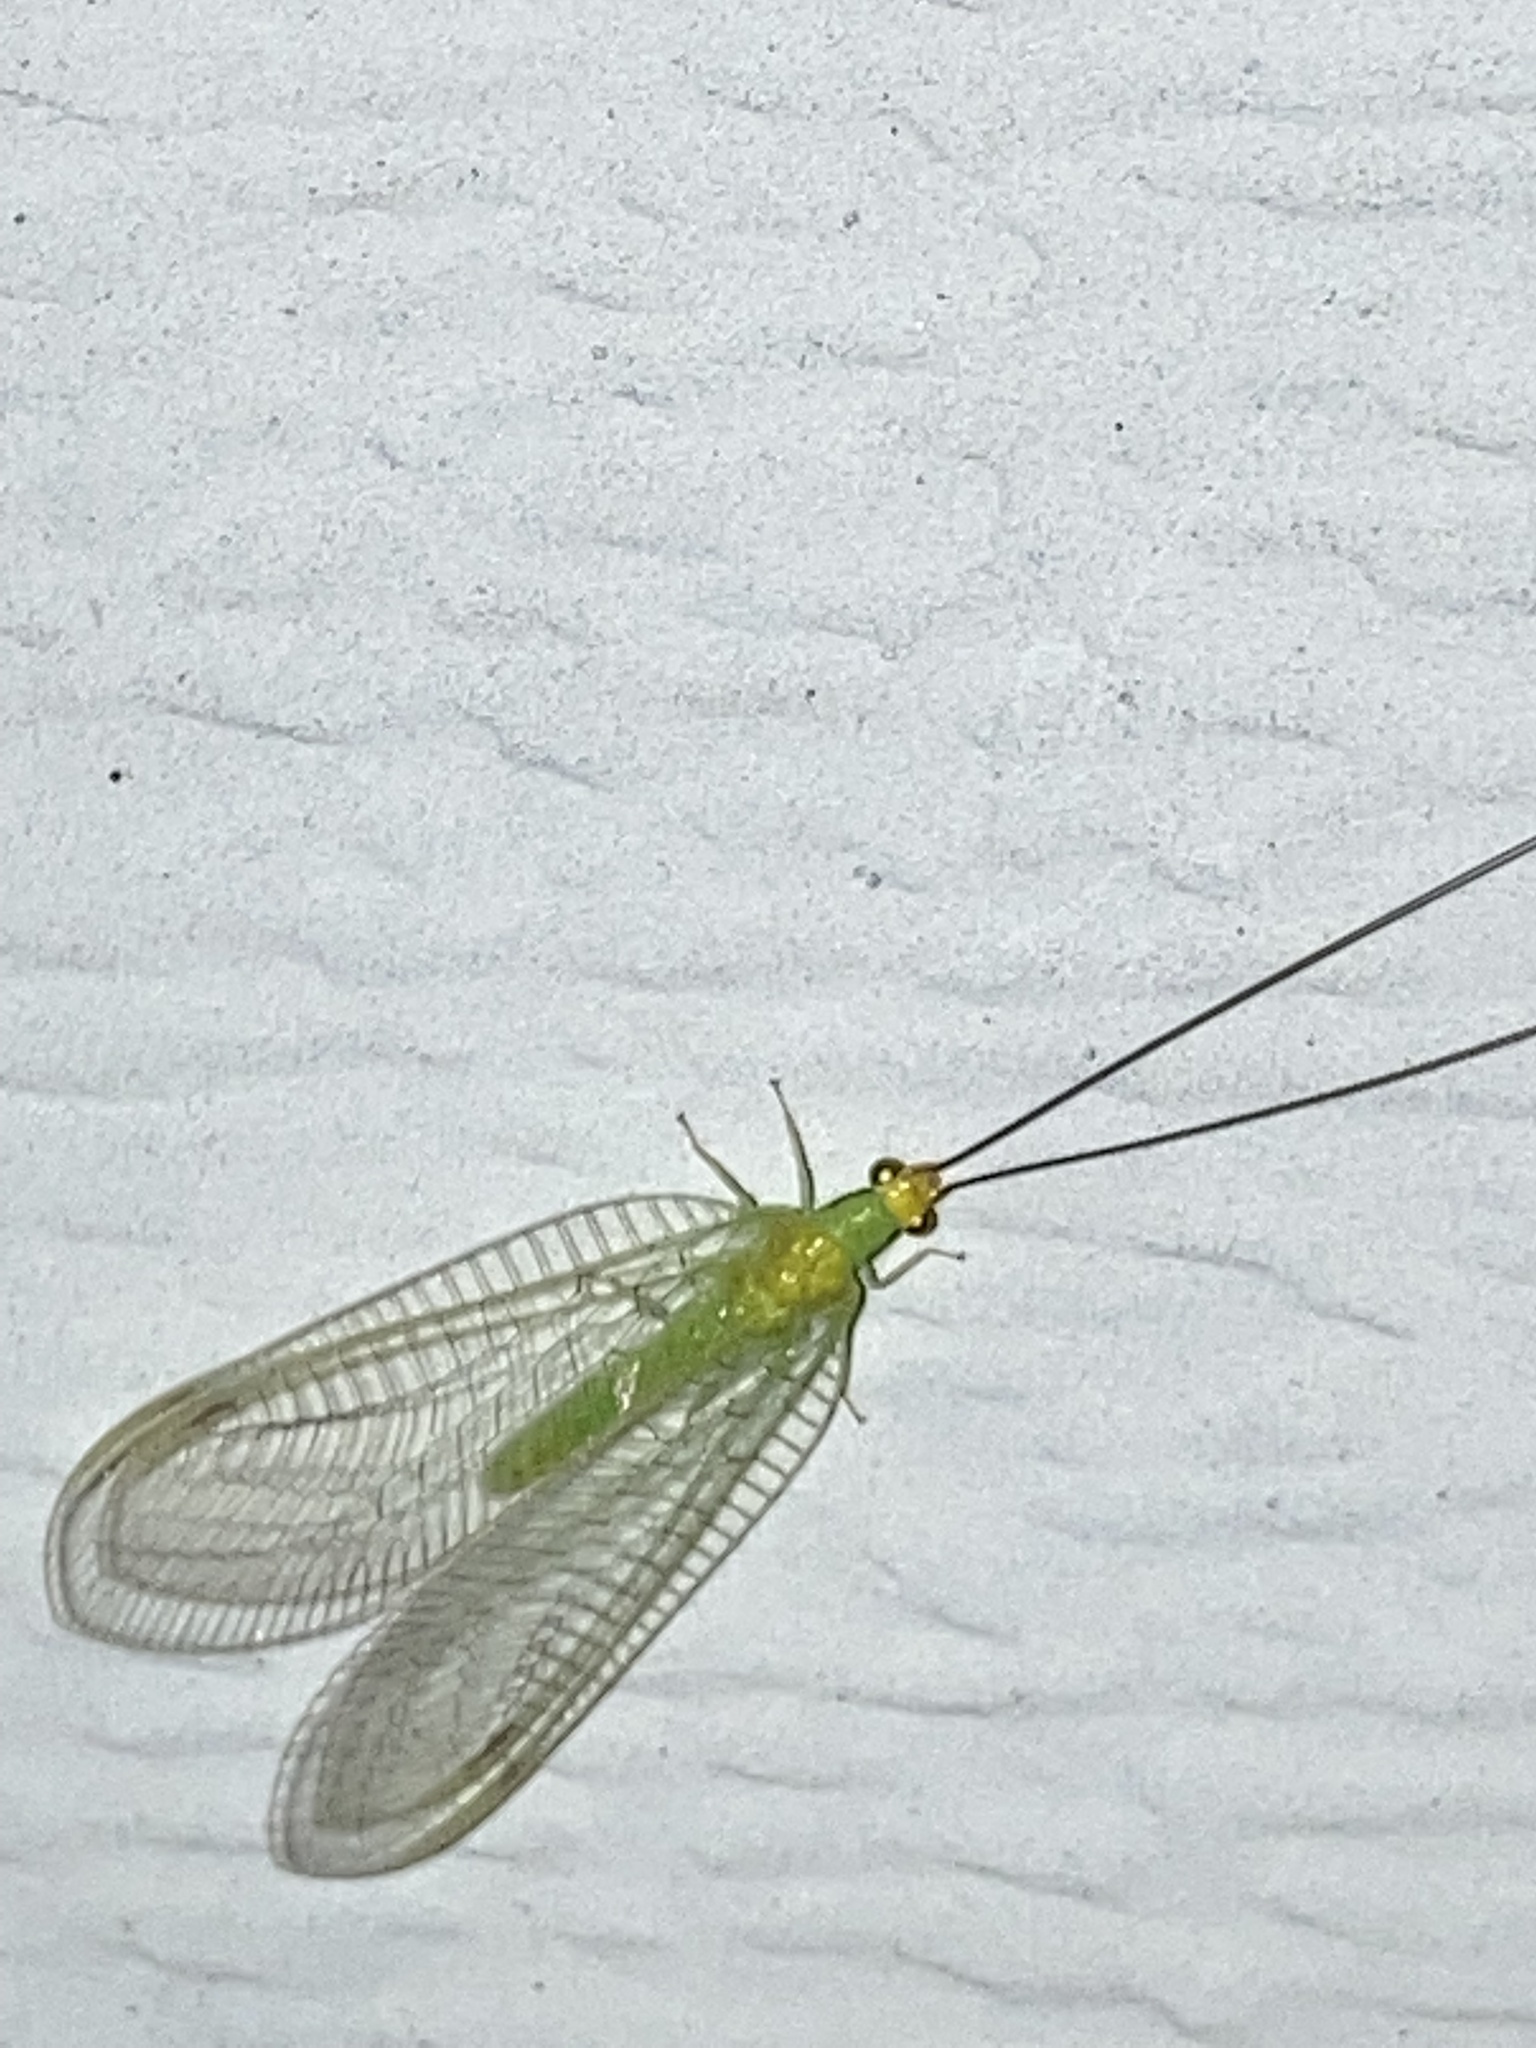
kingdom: Animalia
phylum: Arthropoda
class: Insecta
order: Neuroptera
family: Chrysopidae
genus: Leucochrysa
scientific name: Leucochrysa pavida
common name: Lichen-carrying green lacewing
